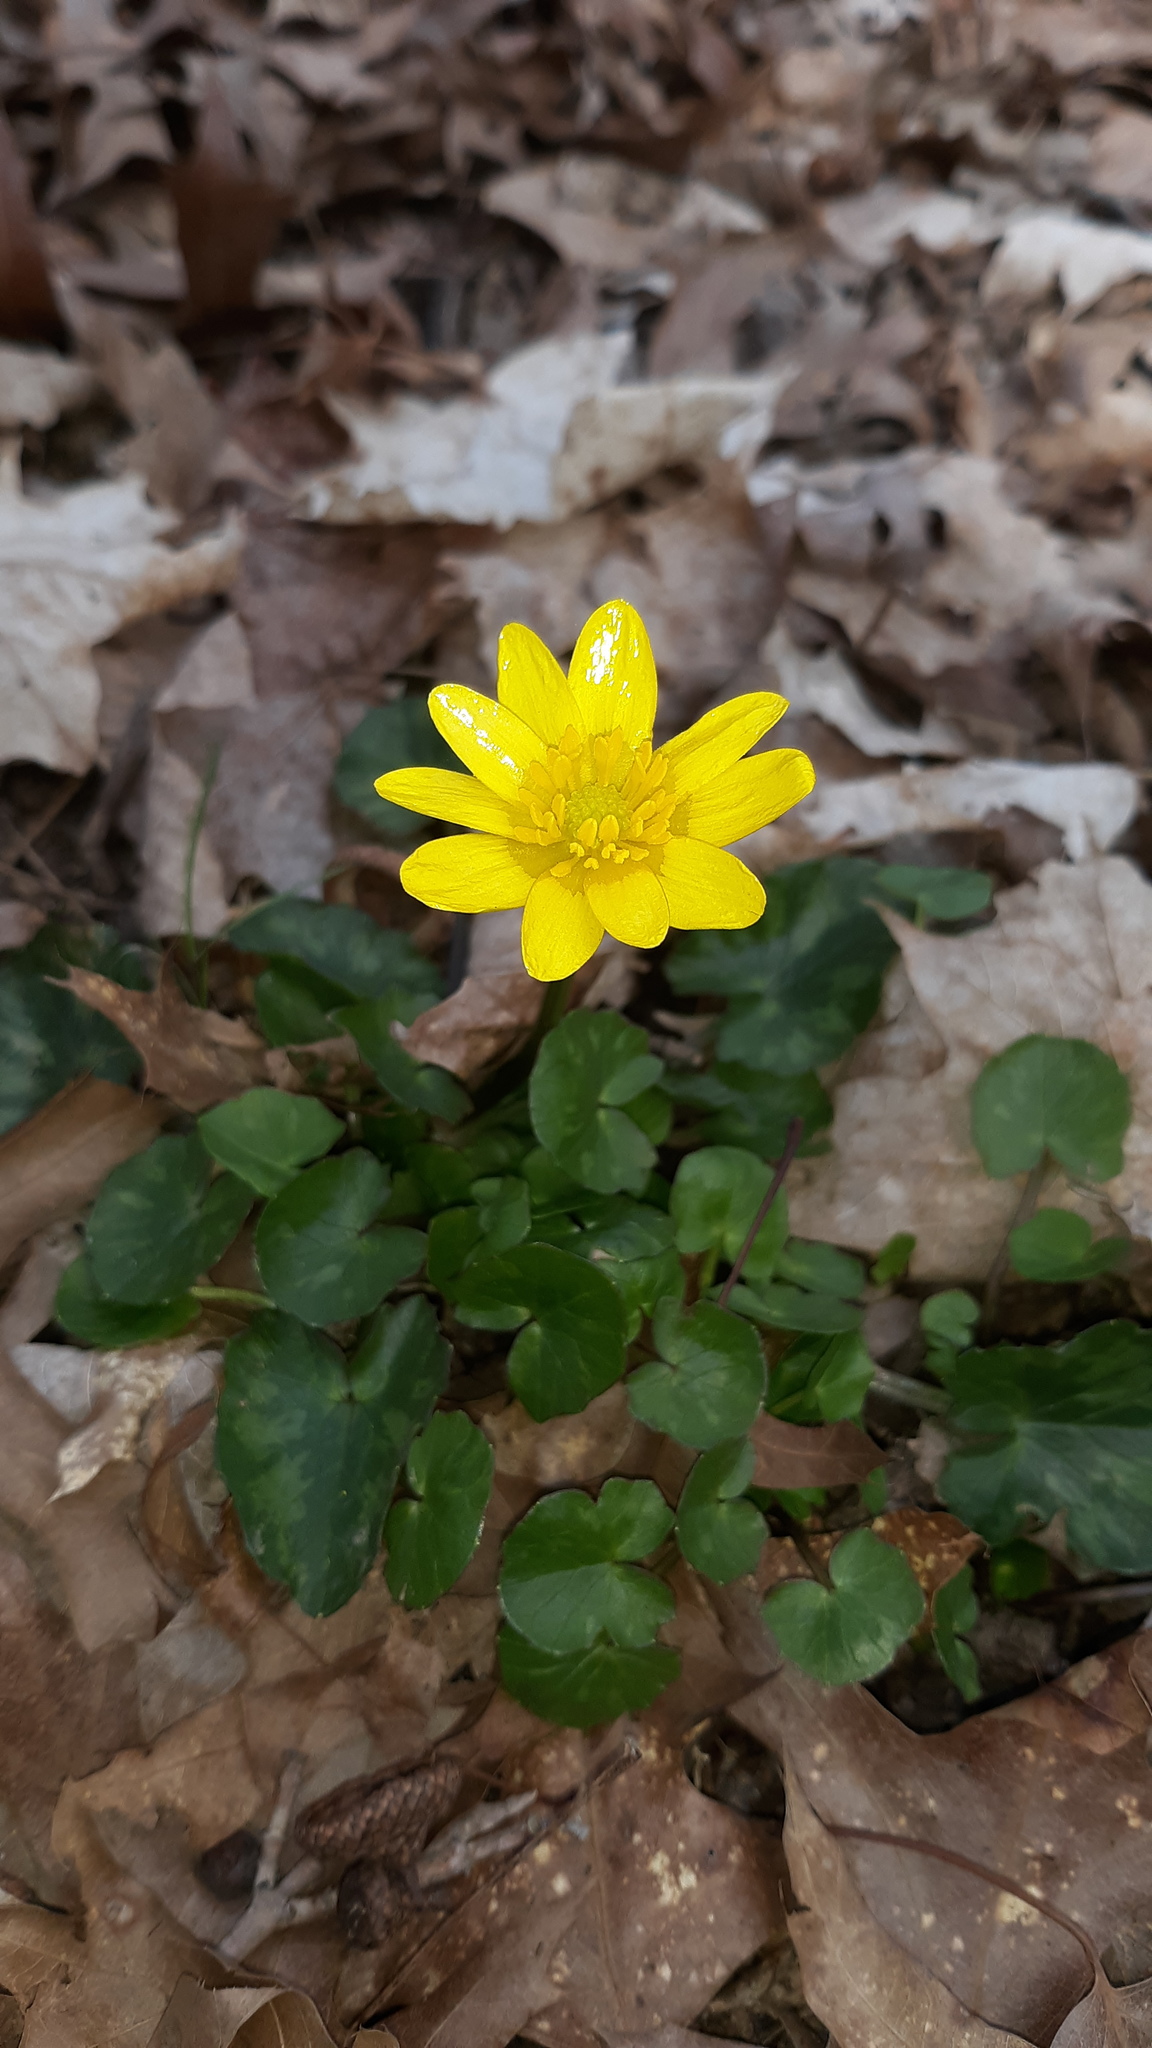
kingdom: Plantae
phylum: Tracheophyta
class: Magnoliopsida
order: Ranunculales
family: Ranunculaceae
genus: Ficaria
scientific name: Ficaria verna
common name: Lesser celandine
